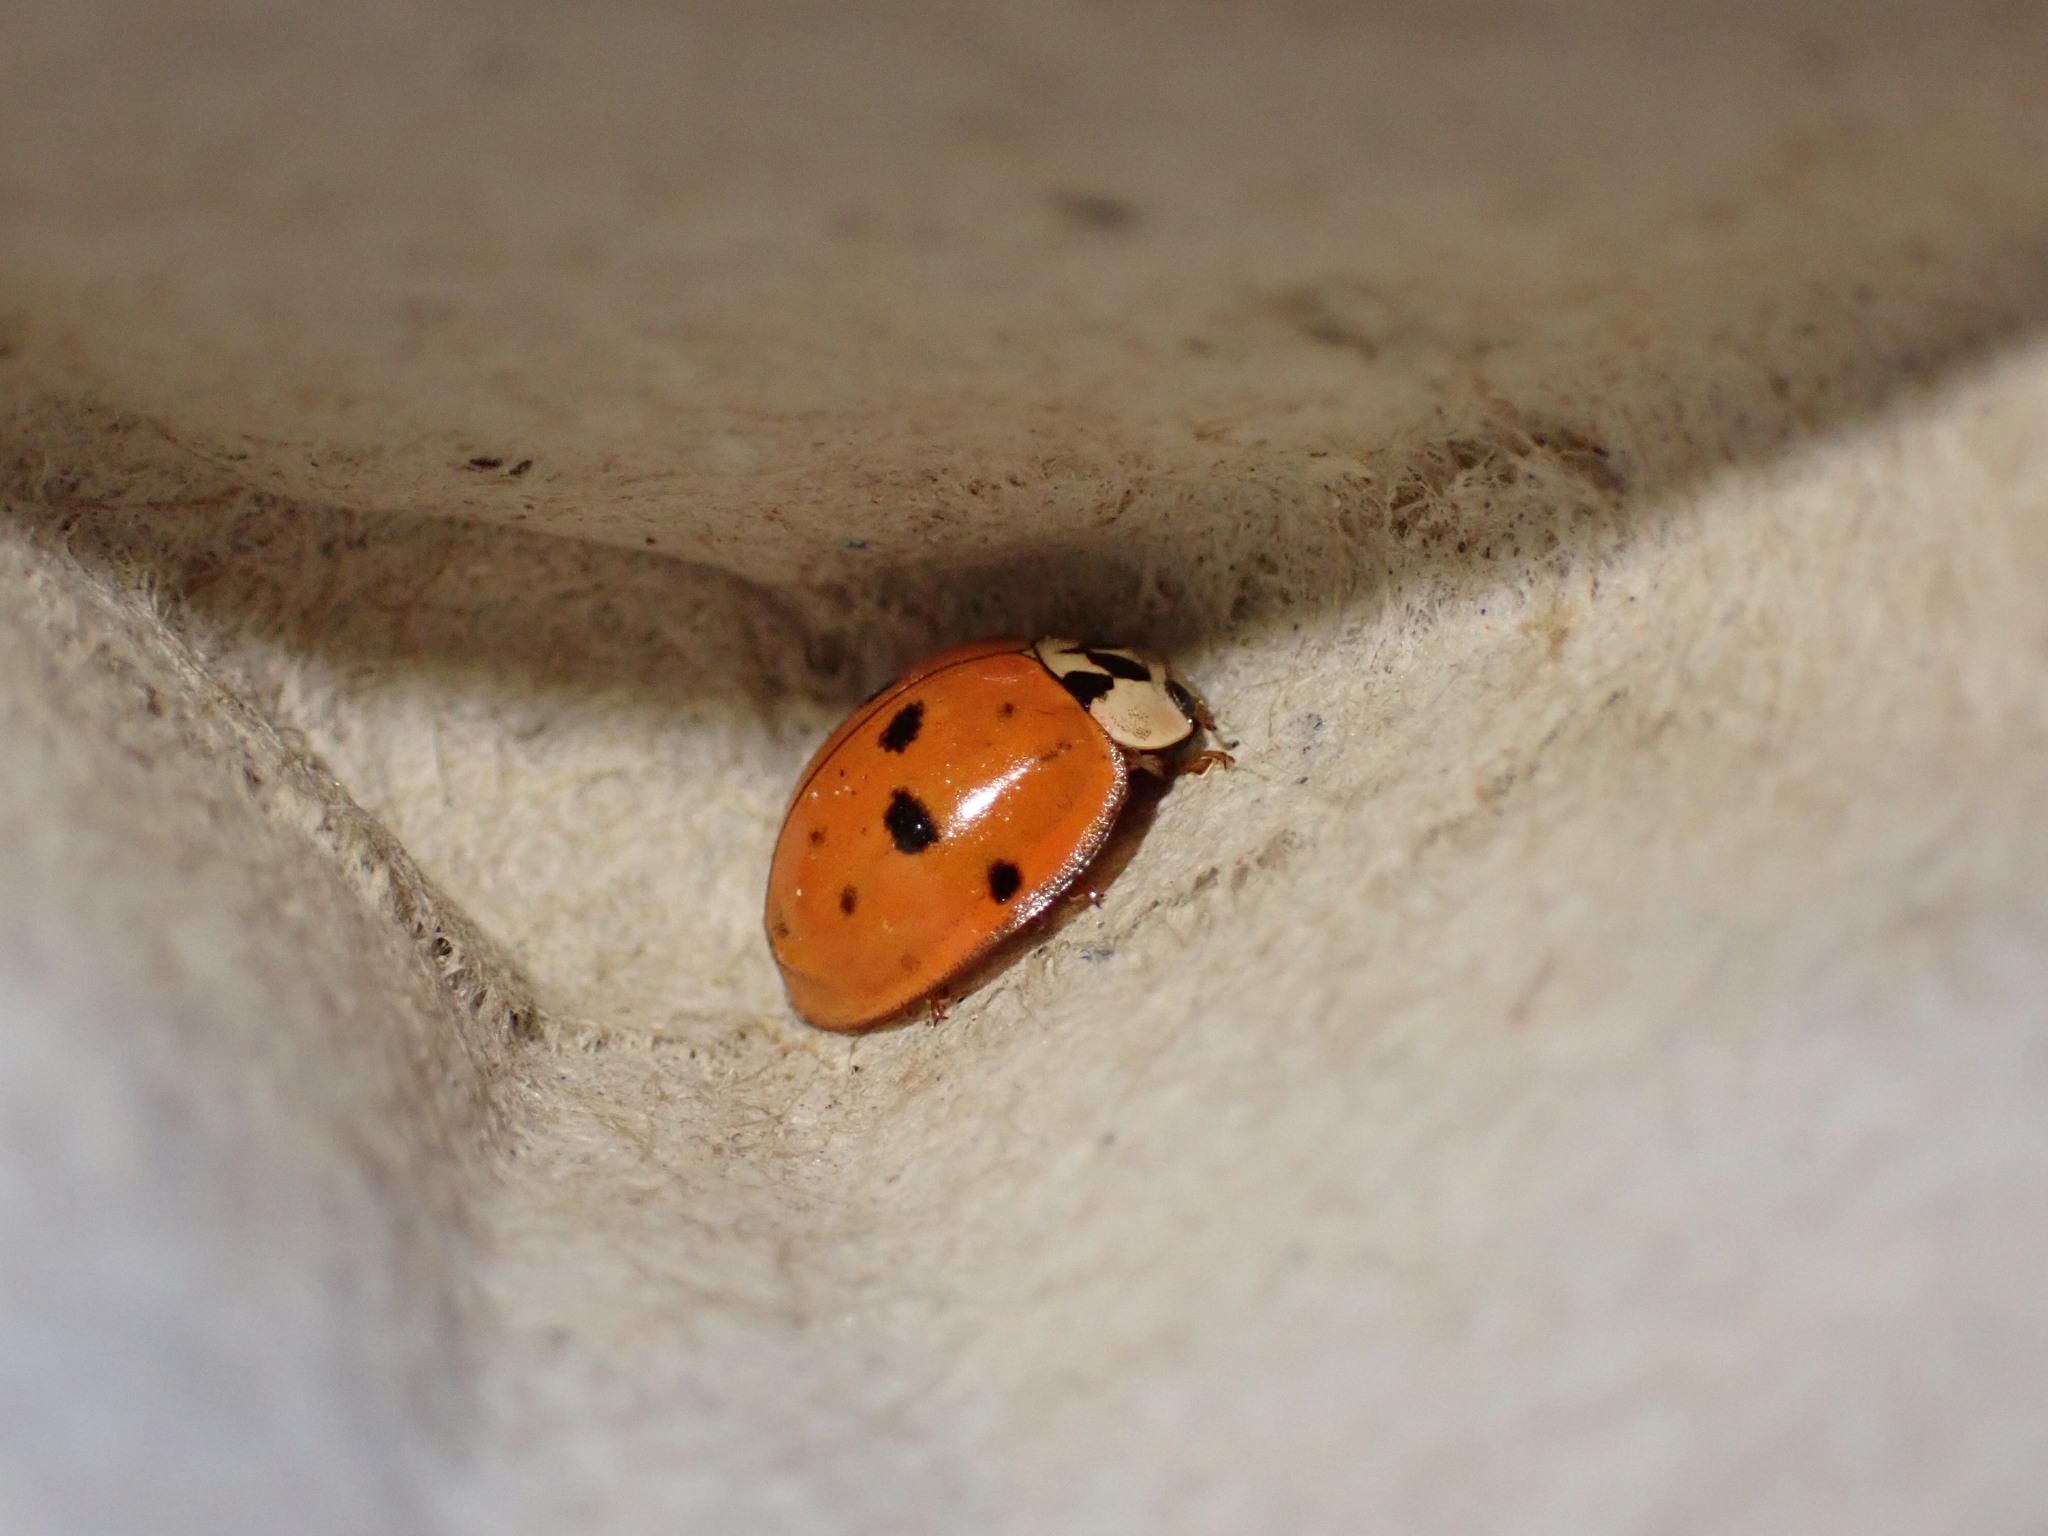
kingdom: Animalia
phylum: Arthropoda
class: Insecta
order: Coleoptera
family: Coccinellidae
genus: Harmonia
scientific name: Harmonia axyridis
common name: Harlequin ladybird
